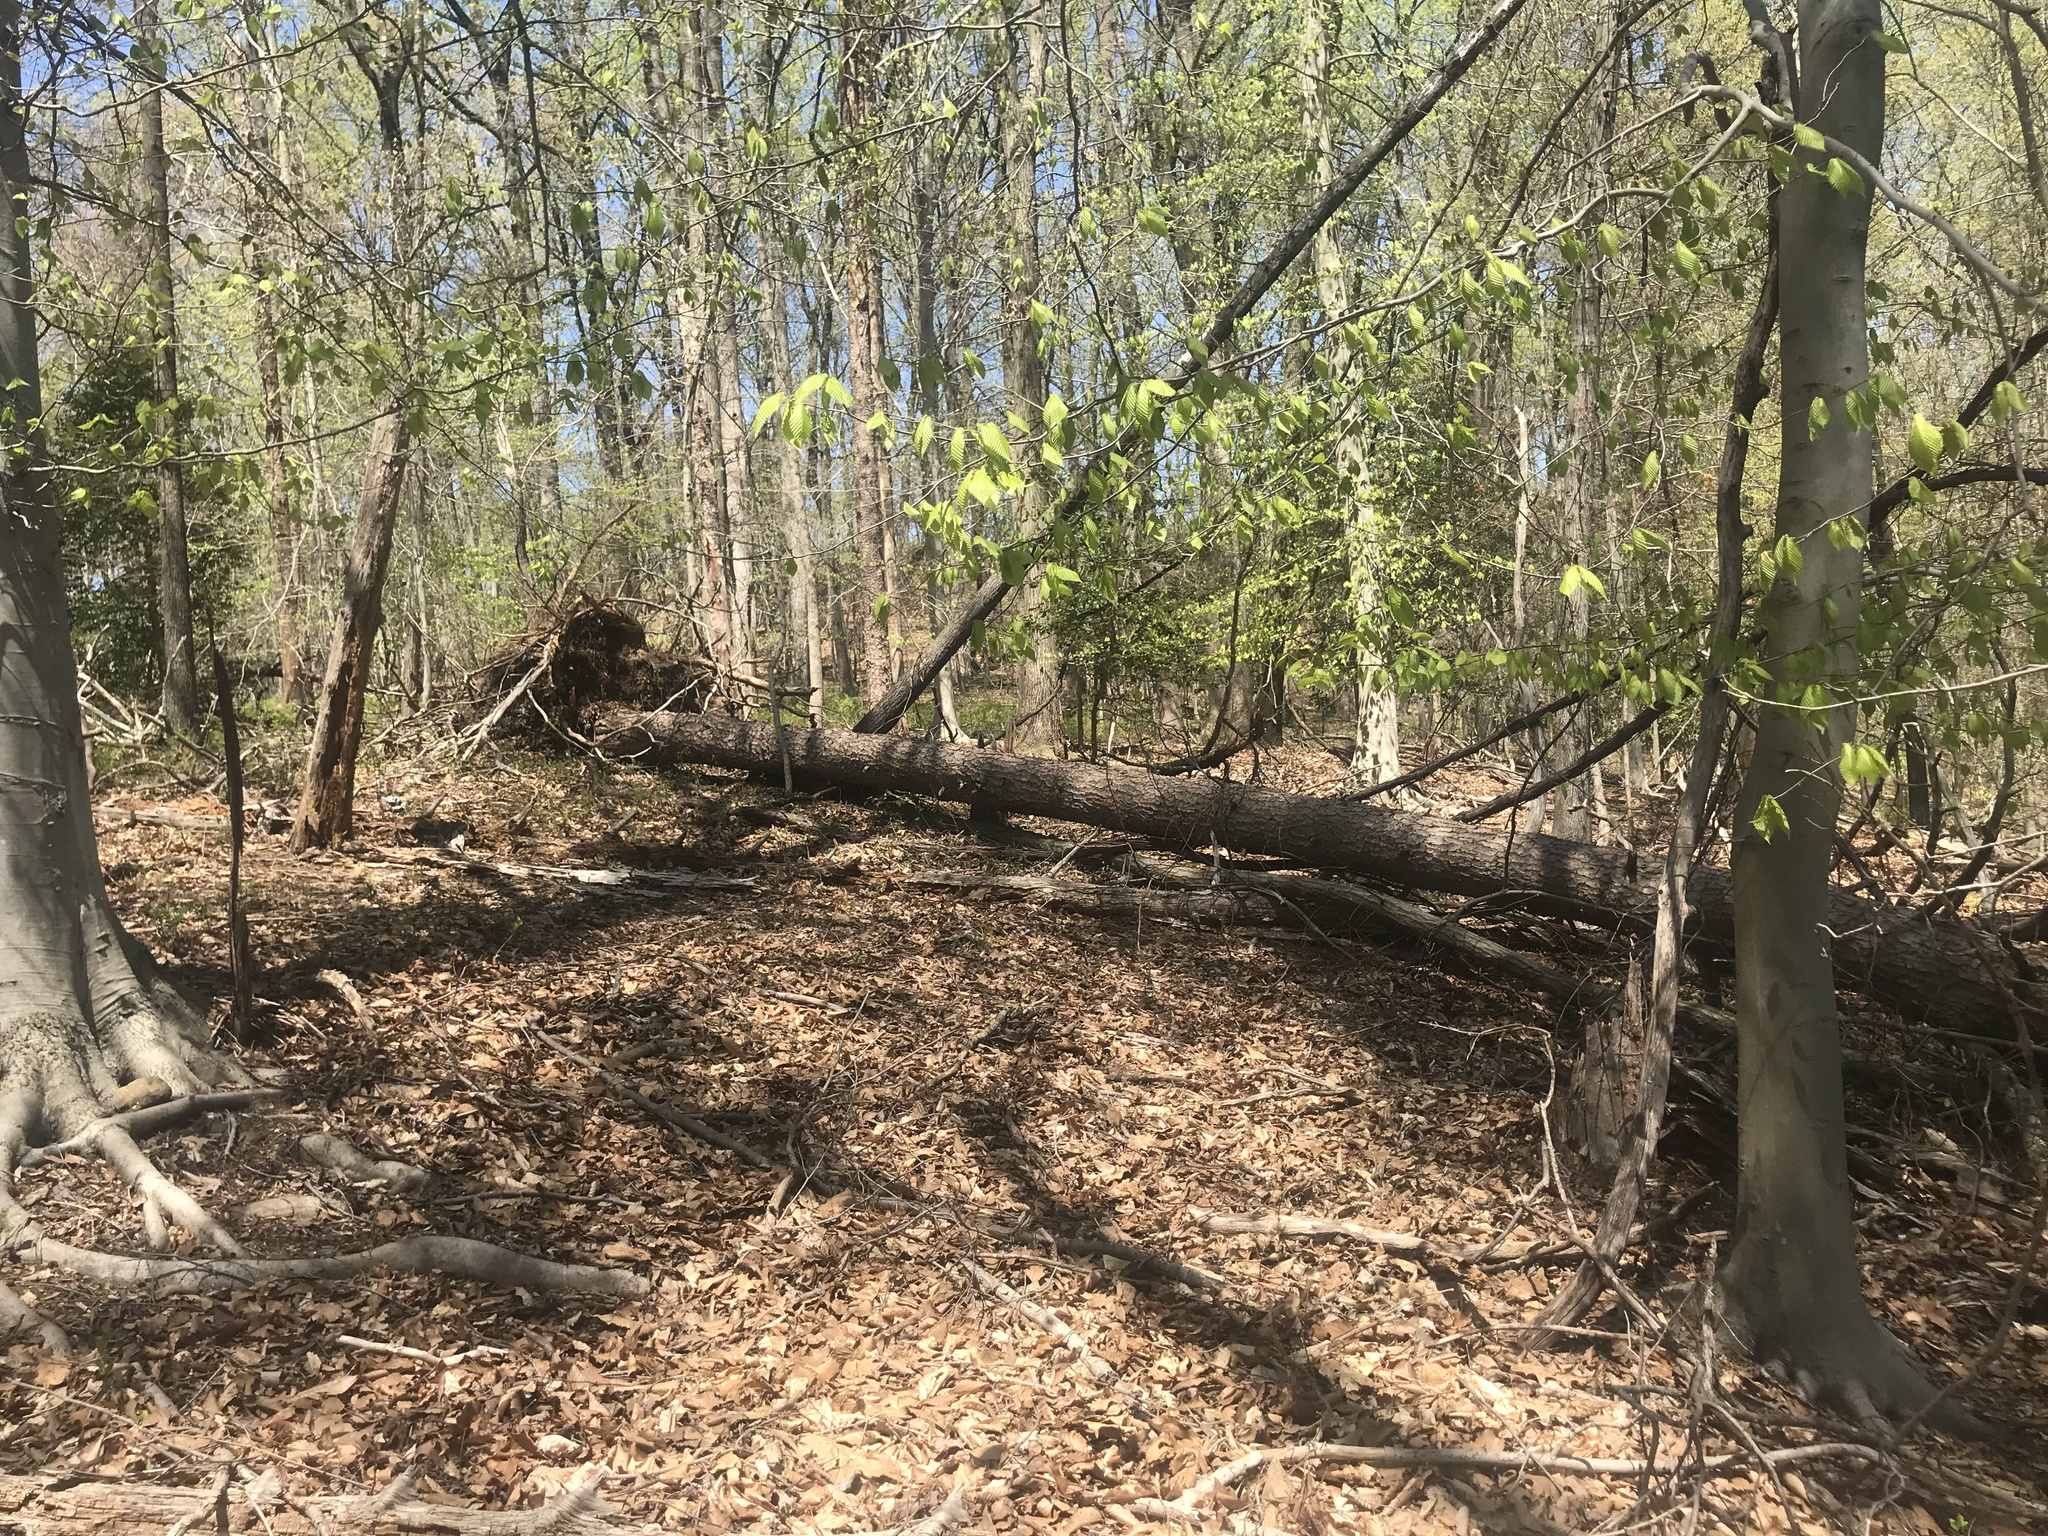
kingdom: Plantae
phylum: Tracheophyta
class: Pinopsida
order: Pinales
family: Pinaceae
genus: Pinus
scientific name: Pinus virginiana
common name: Scrub pine
